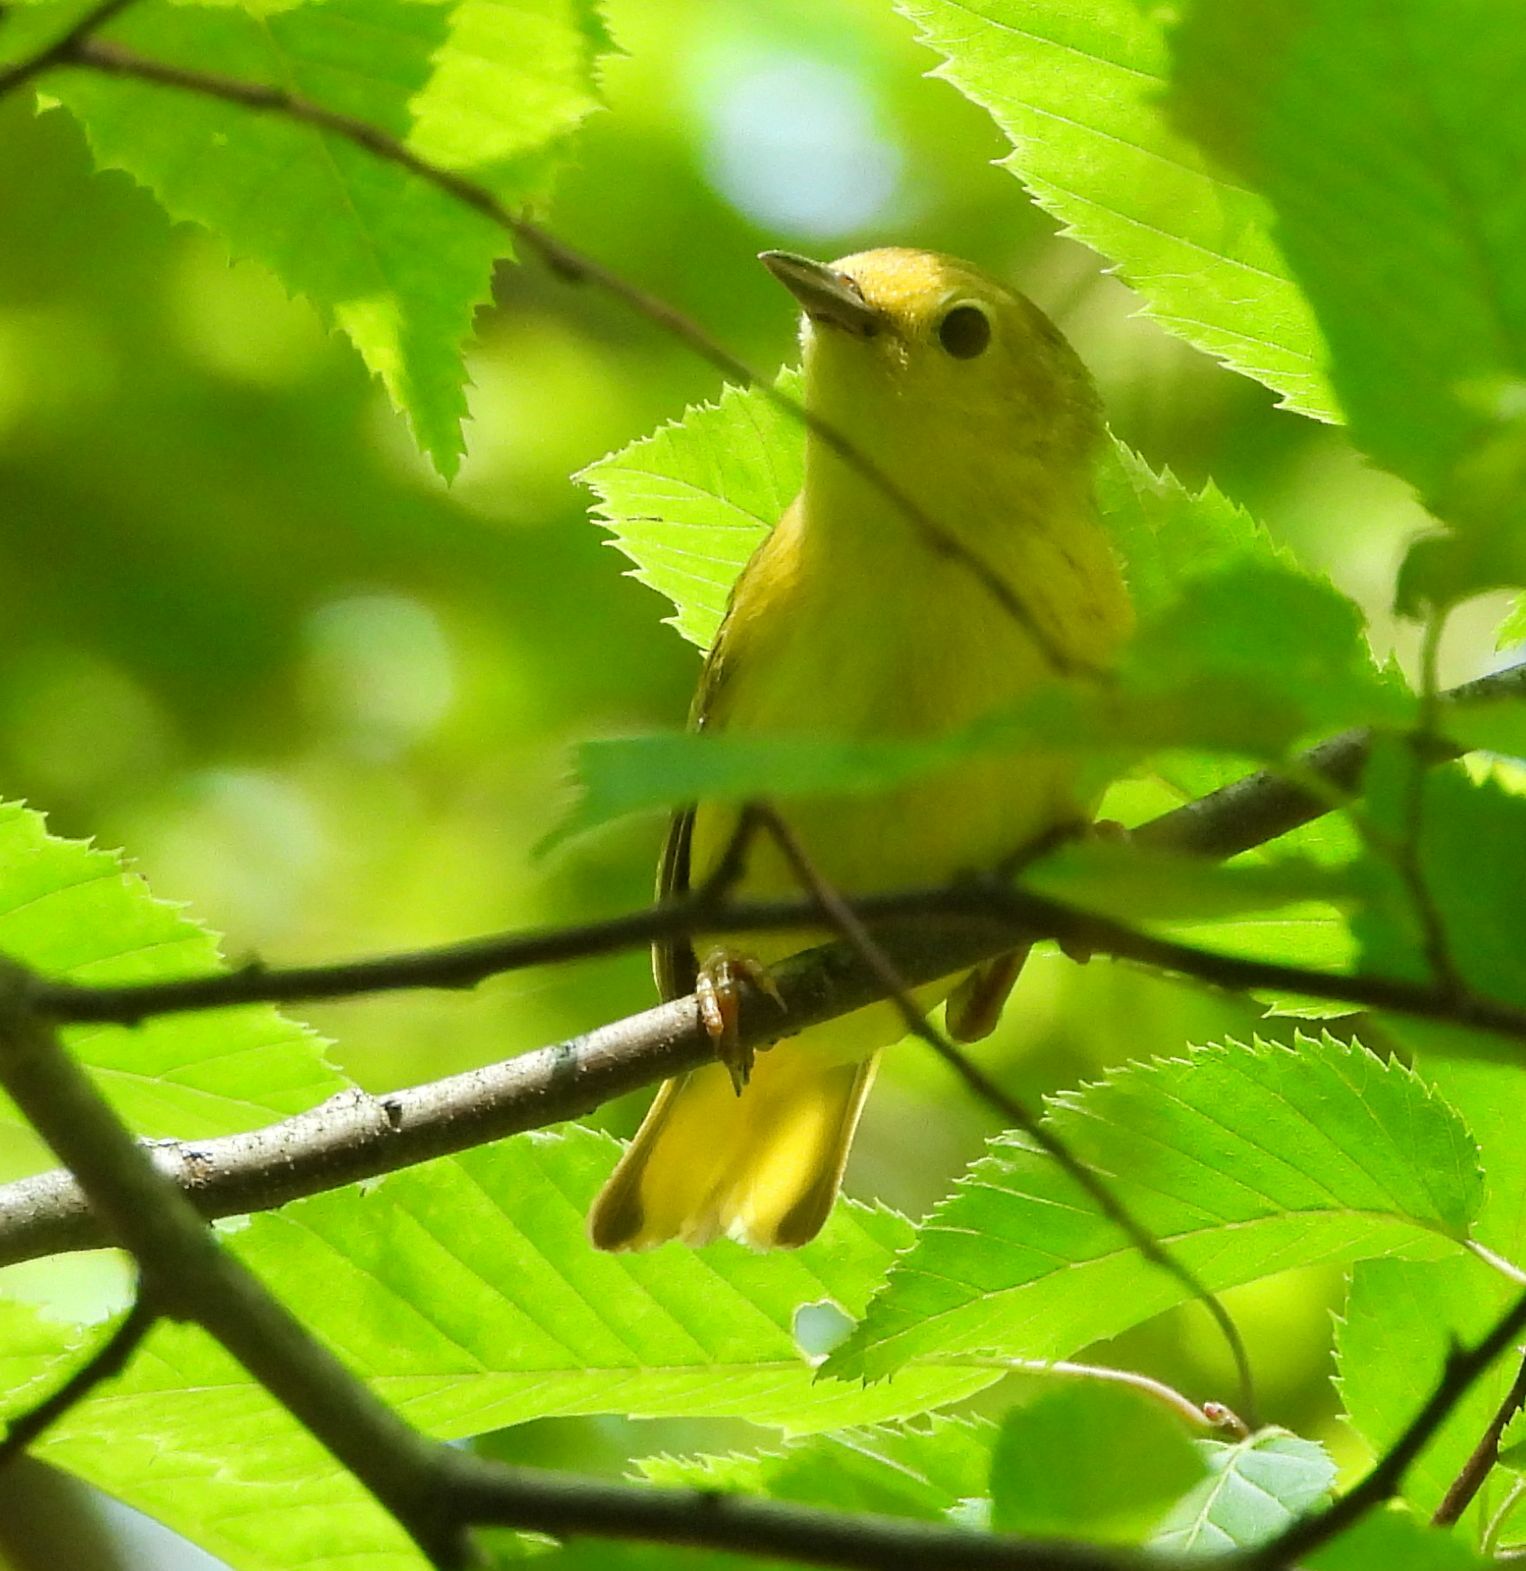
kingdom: Animalia
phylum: Chordata
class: Aves
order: Passeriformes
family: Parulidae
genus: Setophaga
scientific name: Setophaga petechia
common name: Yellow warbler
